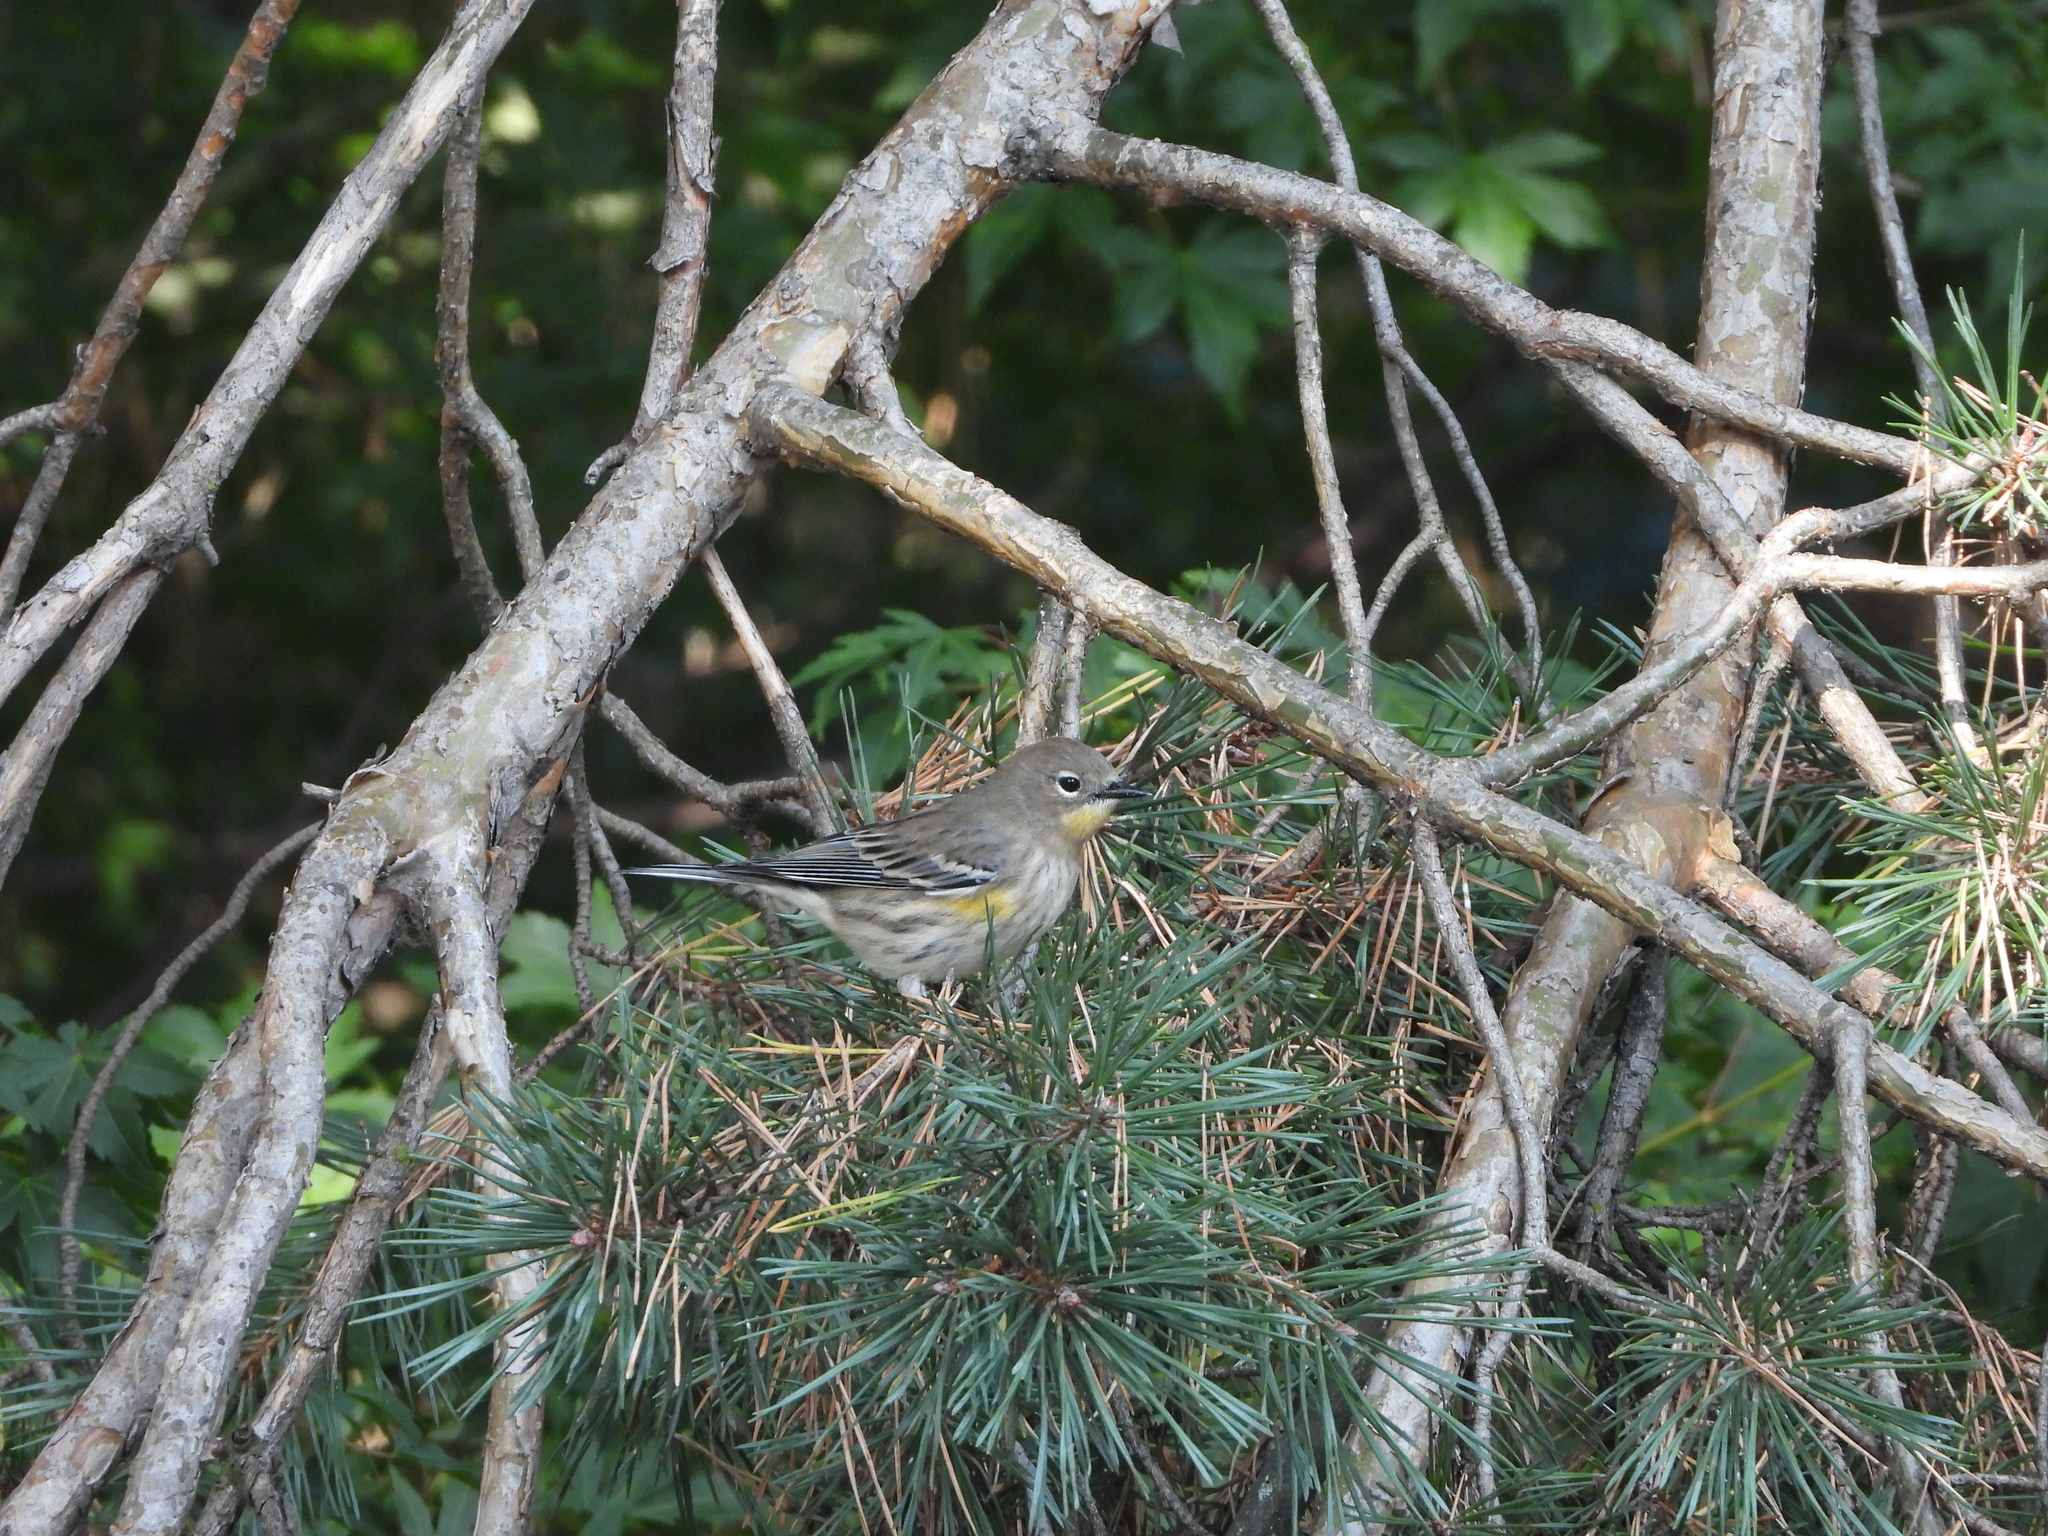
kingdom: Animalia
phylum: Chordata
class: Aves
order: Passeriformes
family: Parulidae
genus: Setophaga
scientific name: Setophaga coronata
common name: Myrtle warbler
